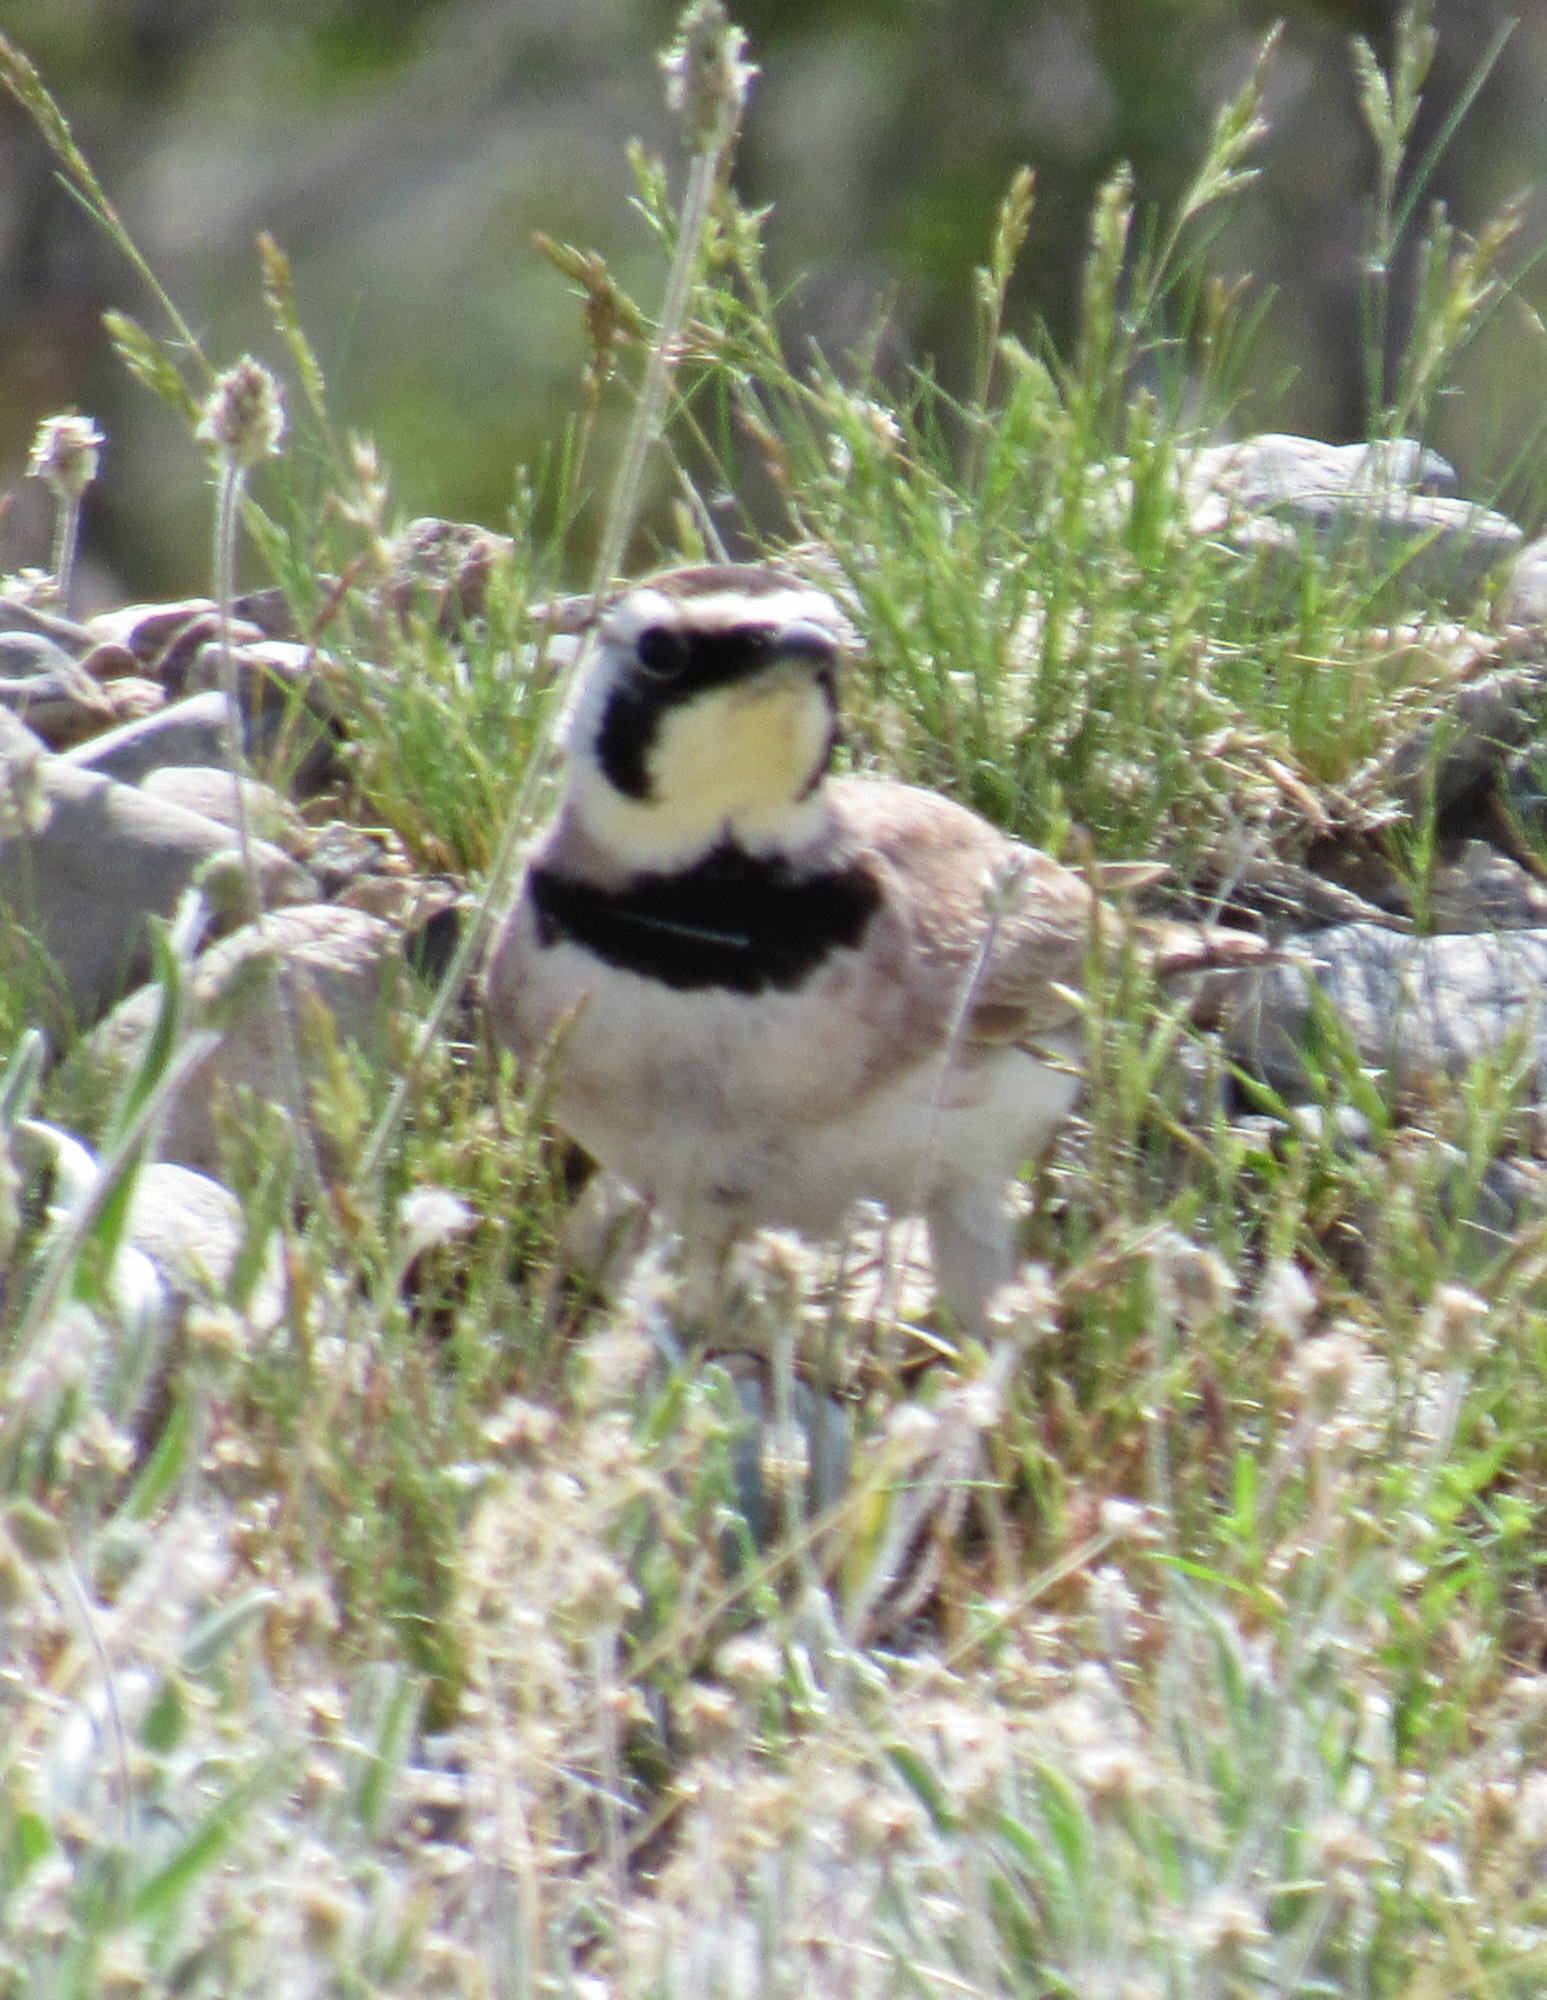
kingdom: Animalia
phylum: Chordata
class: Aves
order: Passeriformes
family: Alaudidae
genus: Eremophila
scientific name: Eremophila alpestris
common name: Horned lark
